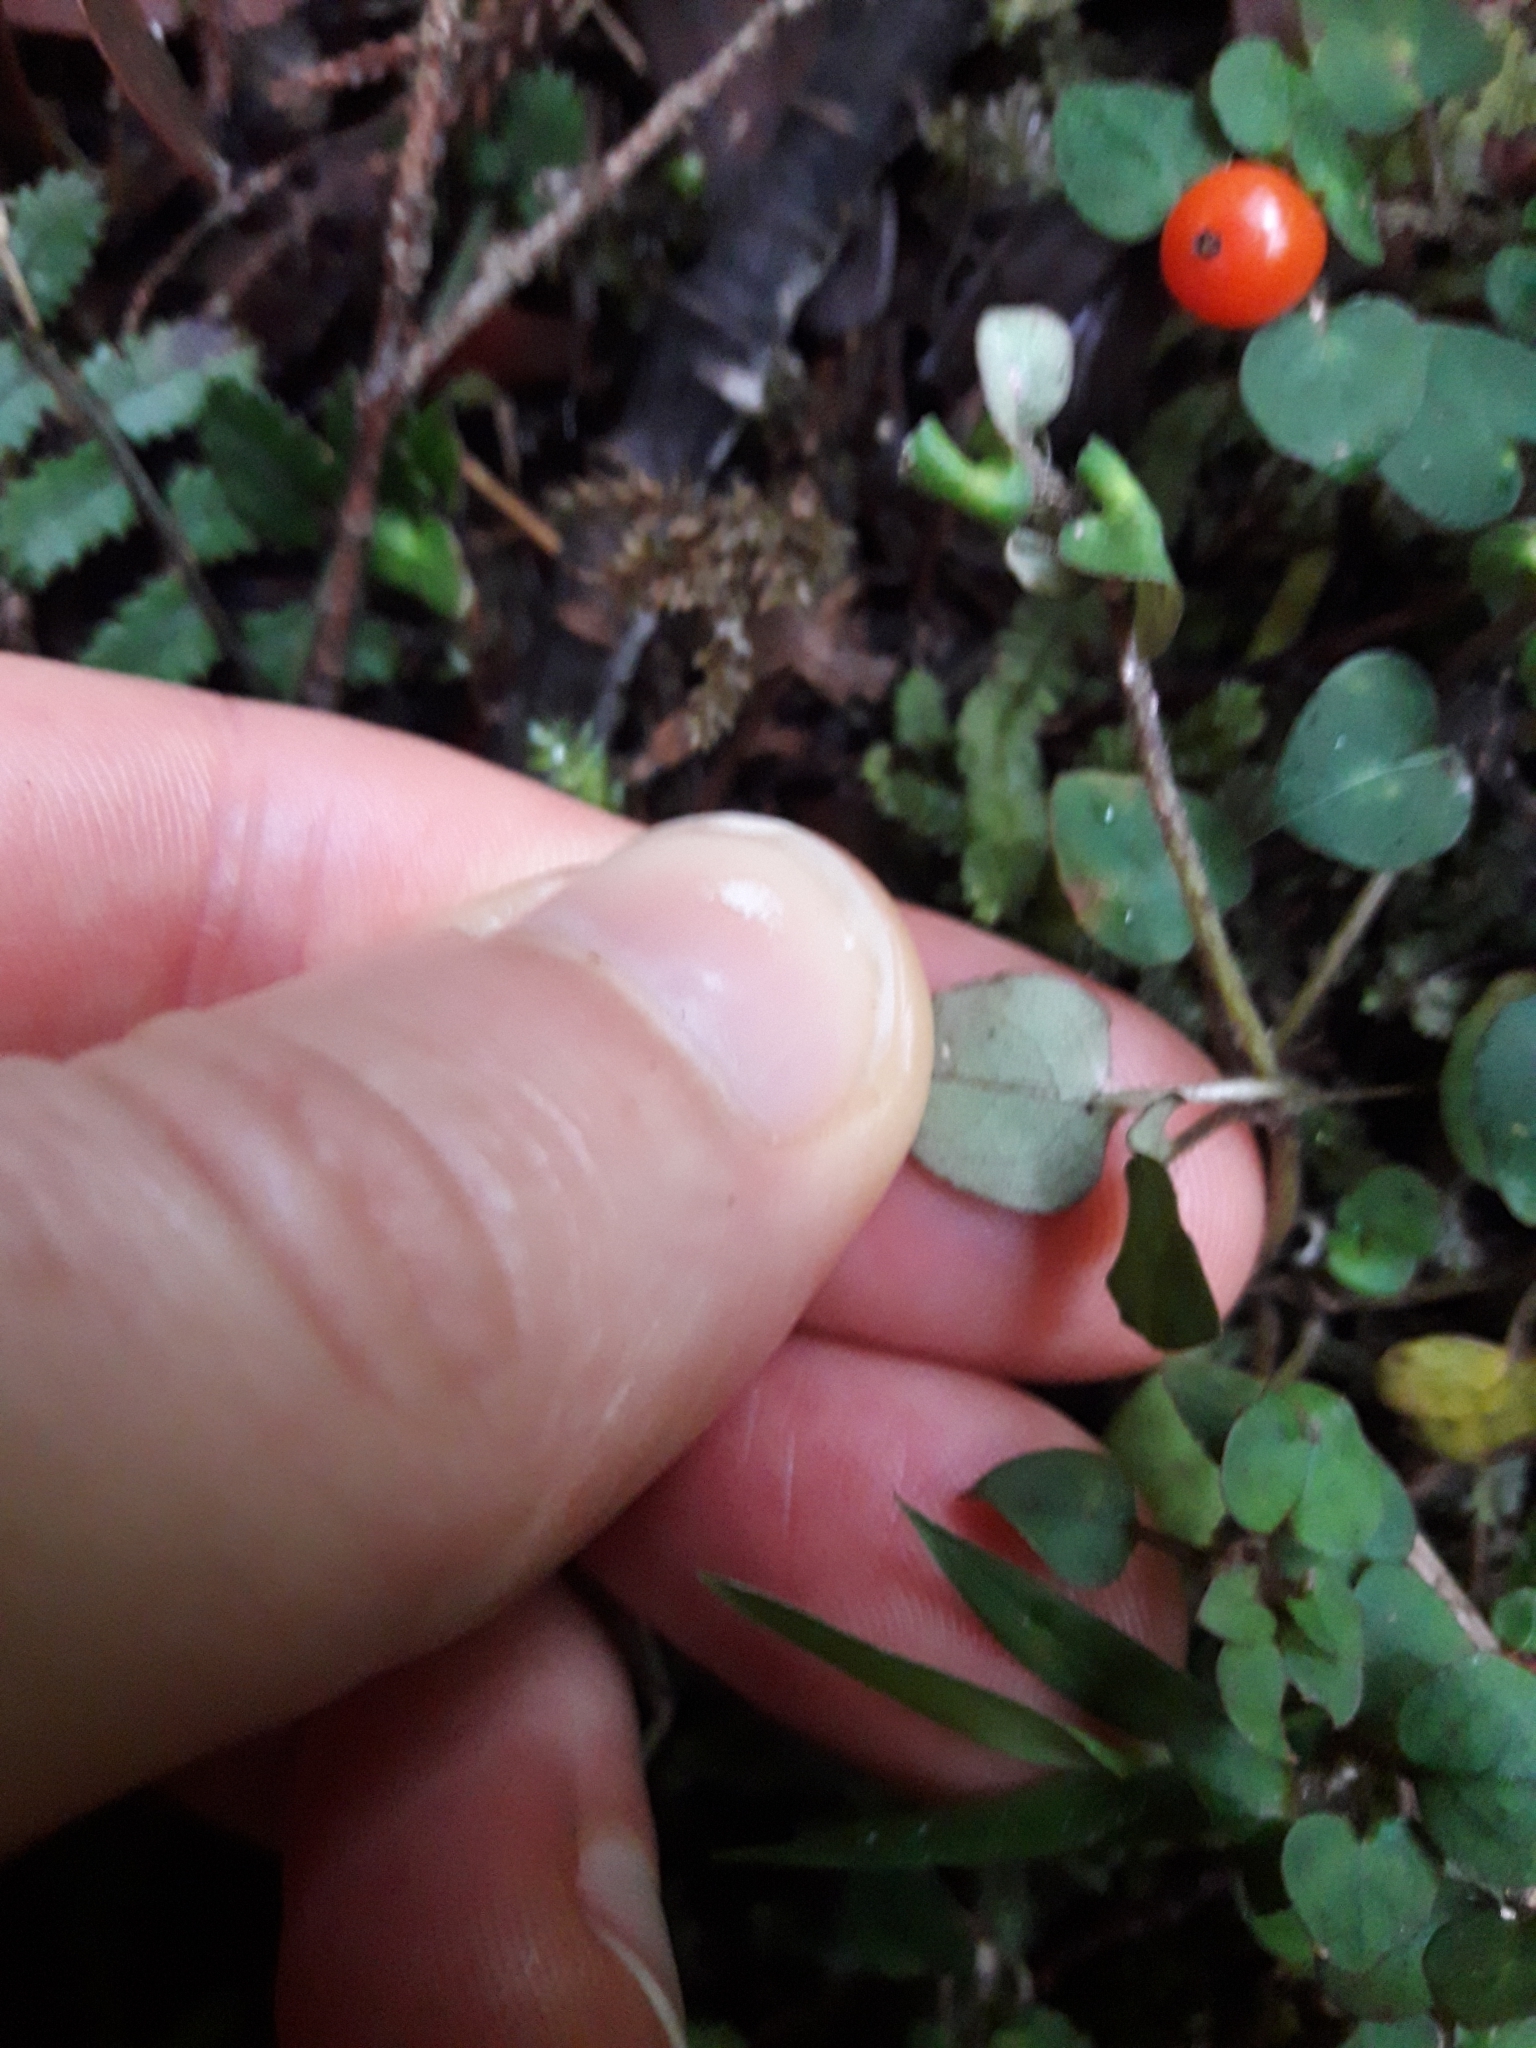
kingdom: Plantae
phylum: Tracheophyta
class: Magnoliopsida
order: Gentianales
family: Rubiaceae
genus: Nertera
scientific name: Nertera dichondrifolia
